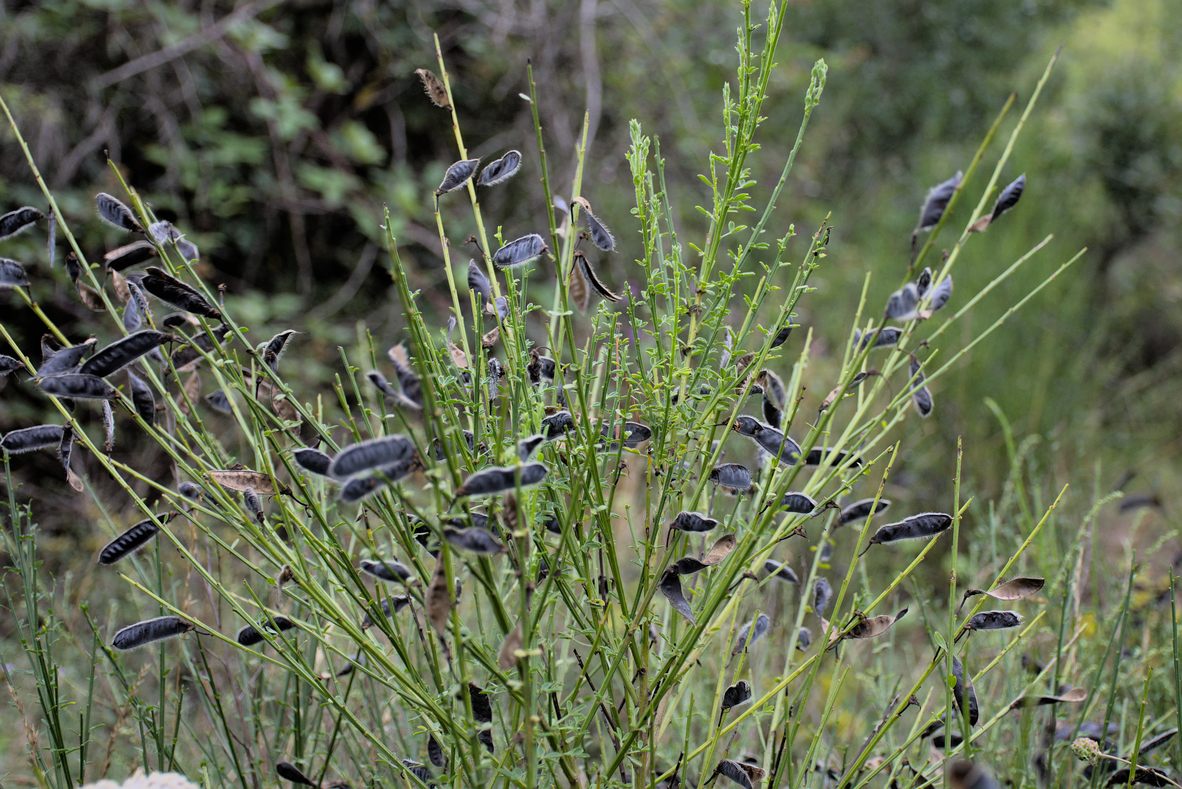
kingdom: Plantae
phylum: Tracheophyta
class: Magnoliopsida
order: Fabales
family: Fabaceae
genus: Cytisus
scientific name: Cytisus scoparius
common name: Scotch broom
